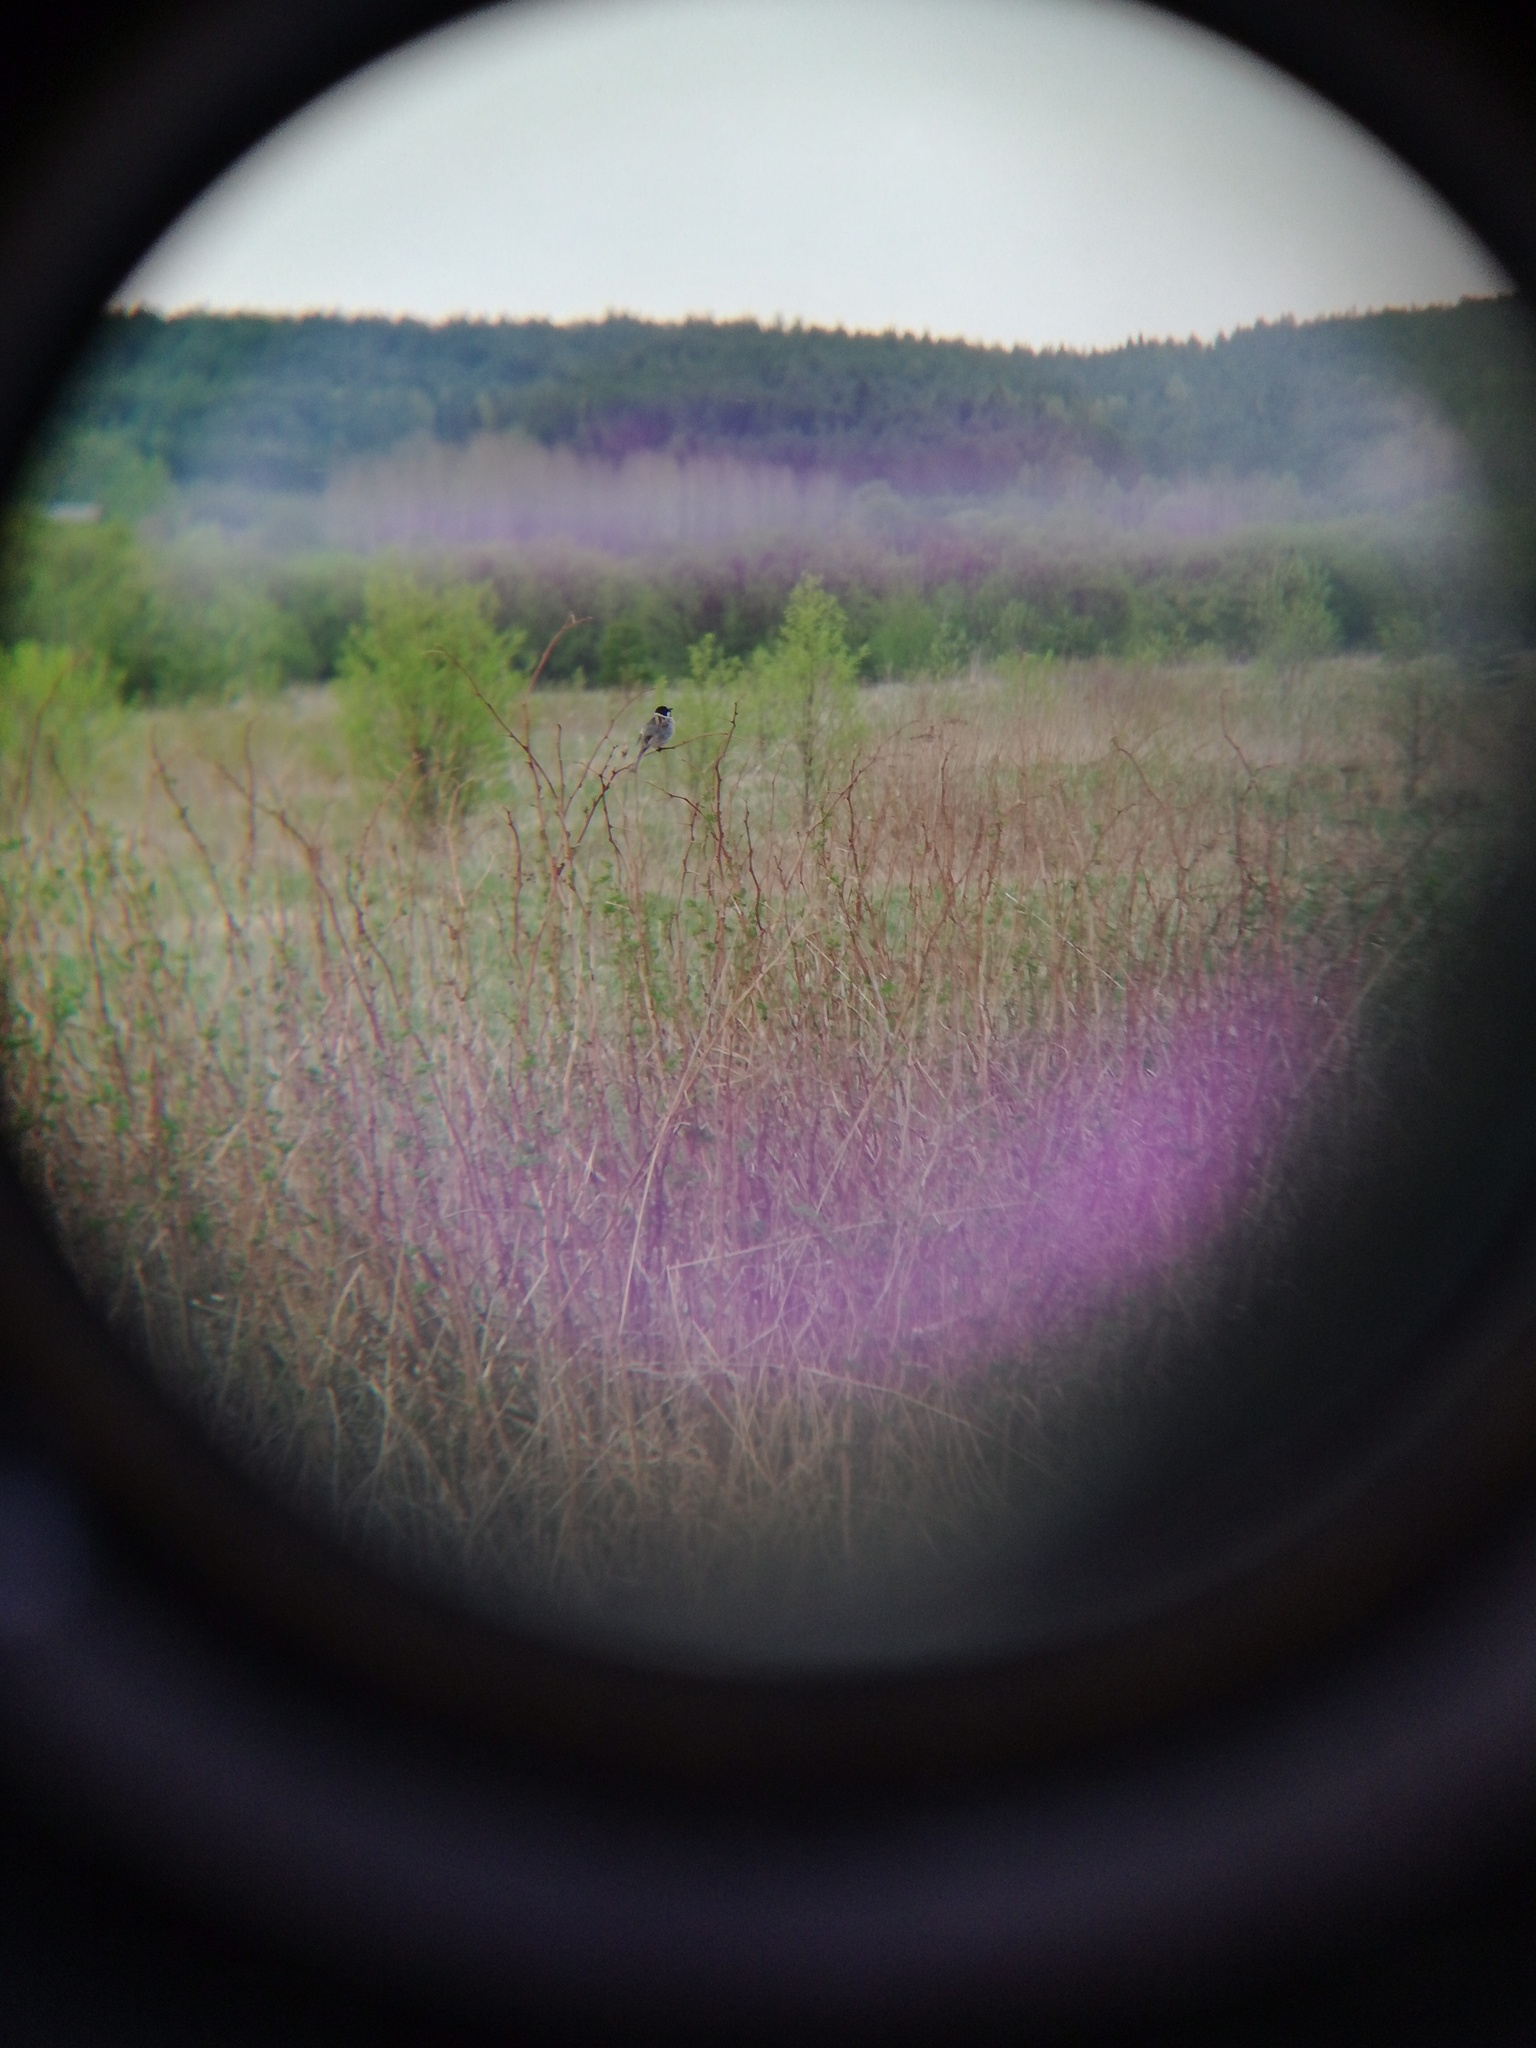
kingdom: Animalia
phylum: Chordata
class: Aves
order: Passeriformes
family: Emberizidae
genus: Emberiza
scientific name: Emberiza schoeniclus
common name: Reed bunting
